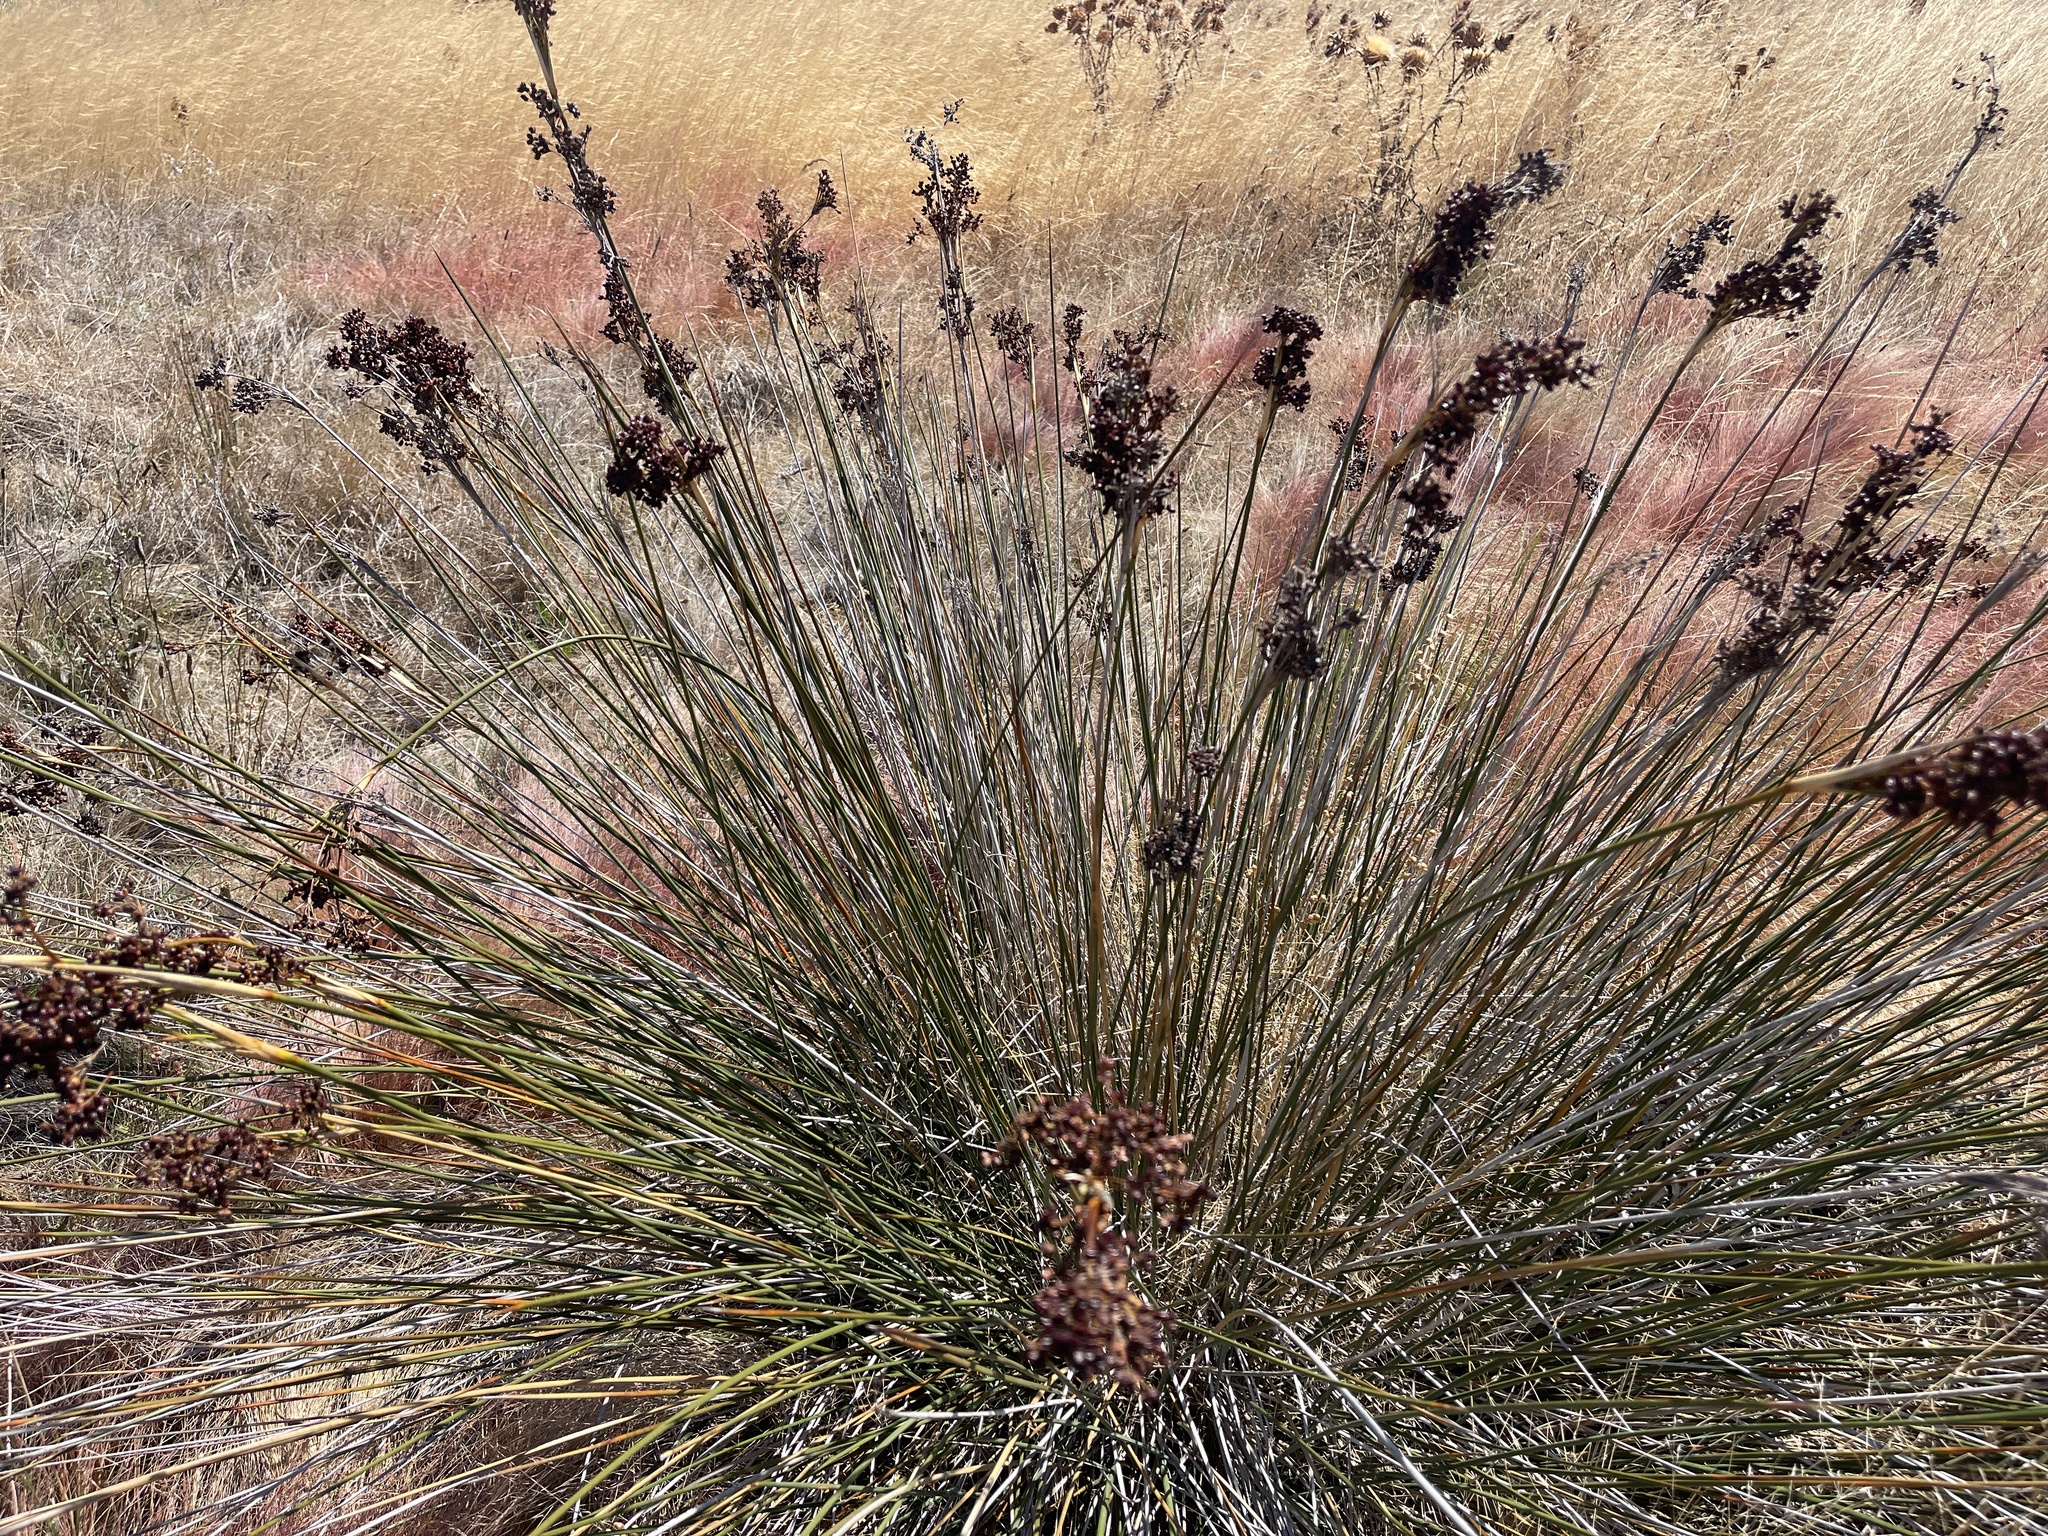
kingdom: Plantae
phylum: Tracheophyta
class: Liliopsida
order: Poales
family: Juncaceae
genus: Juncus
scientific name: Juncus acutus
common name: Sharp rush
